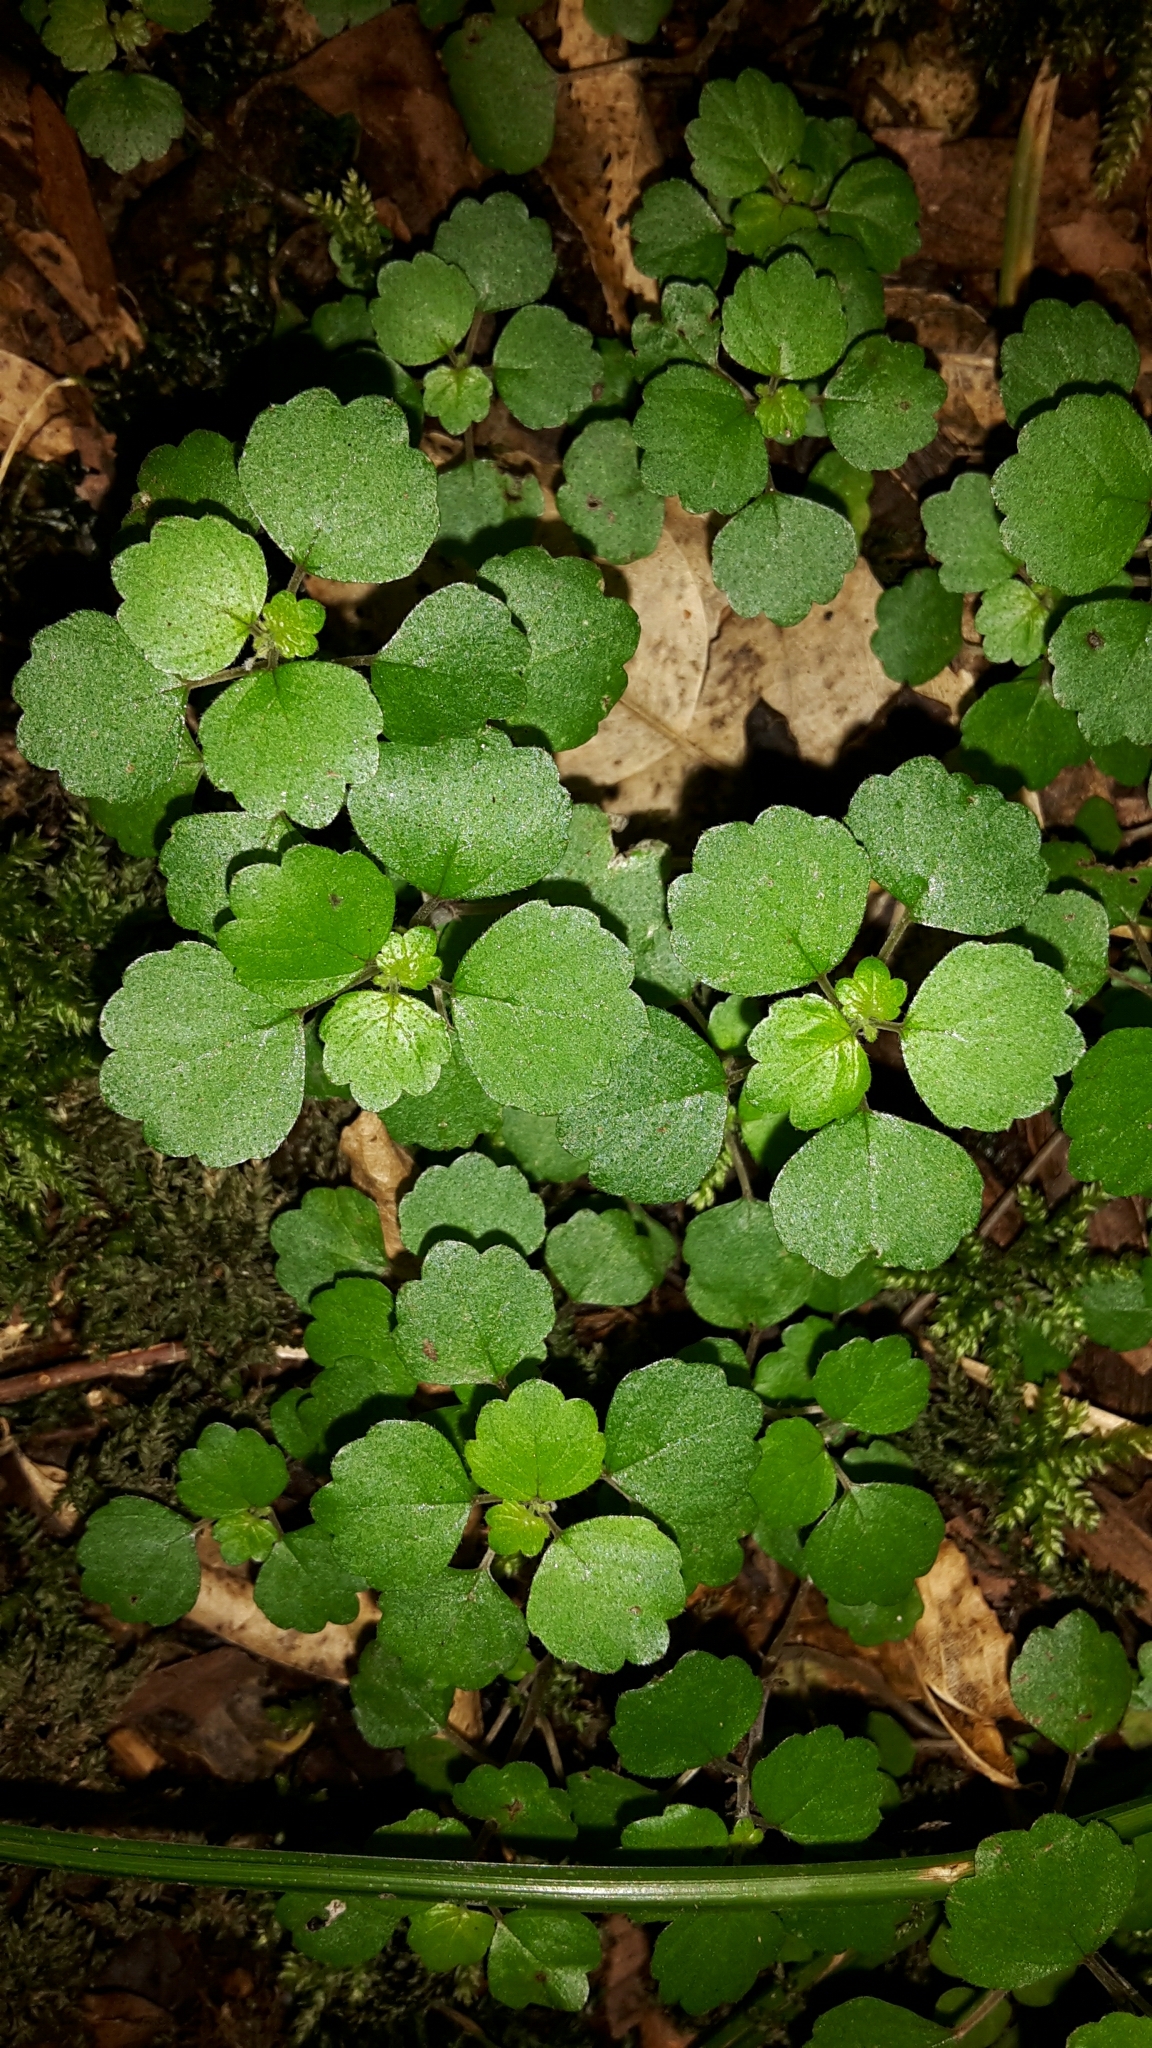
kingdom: Plantae
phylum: Tracheophyta
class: Magnoliopsida
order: Rosales
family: Urticaceae
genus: Australina
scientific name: Australina pusilla
